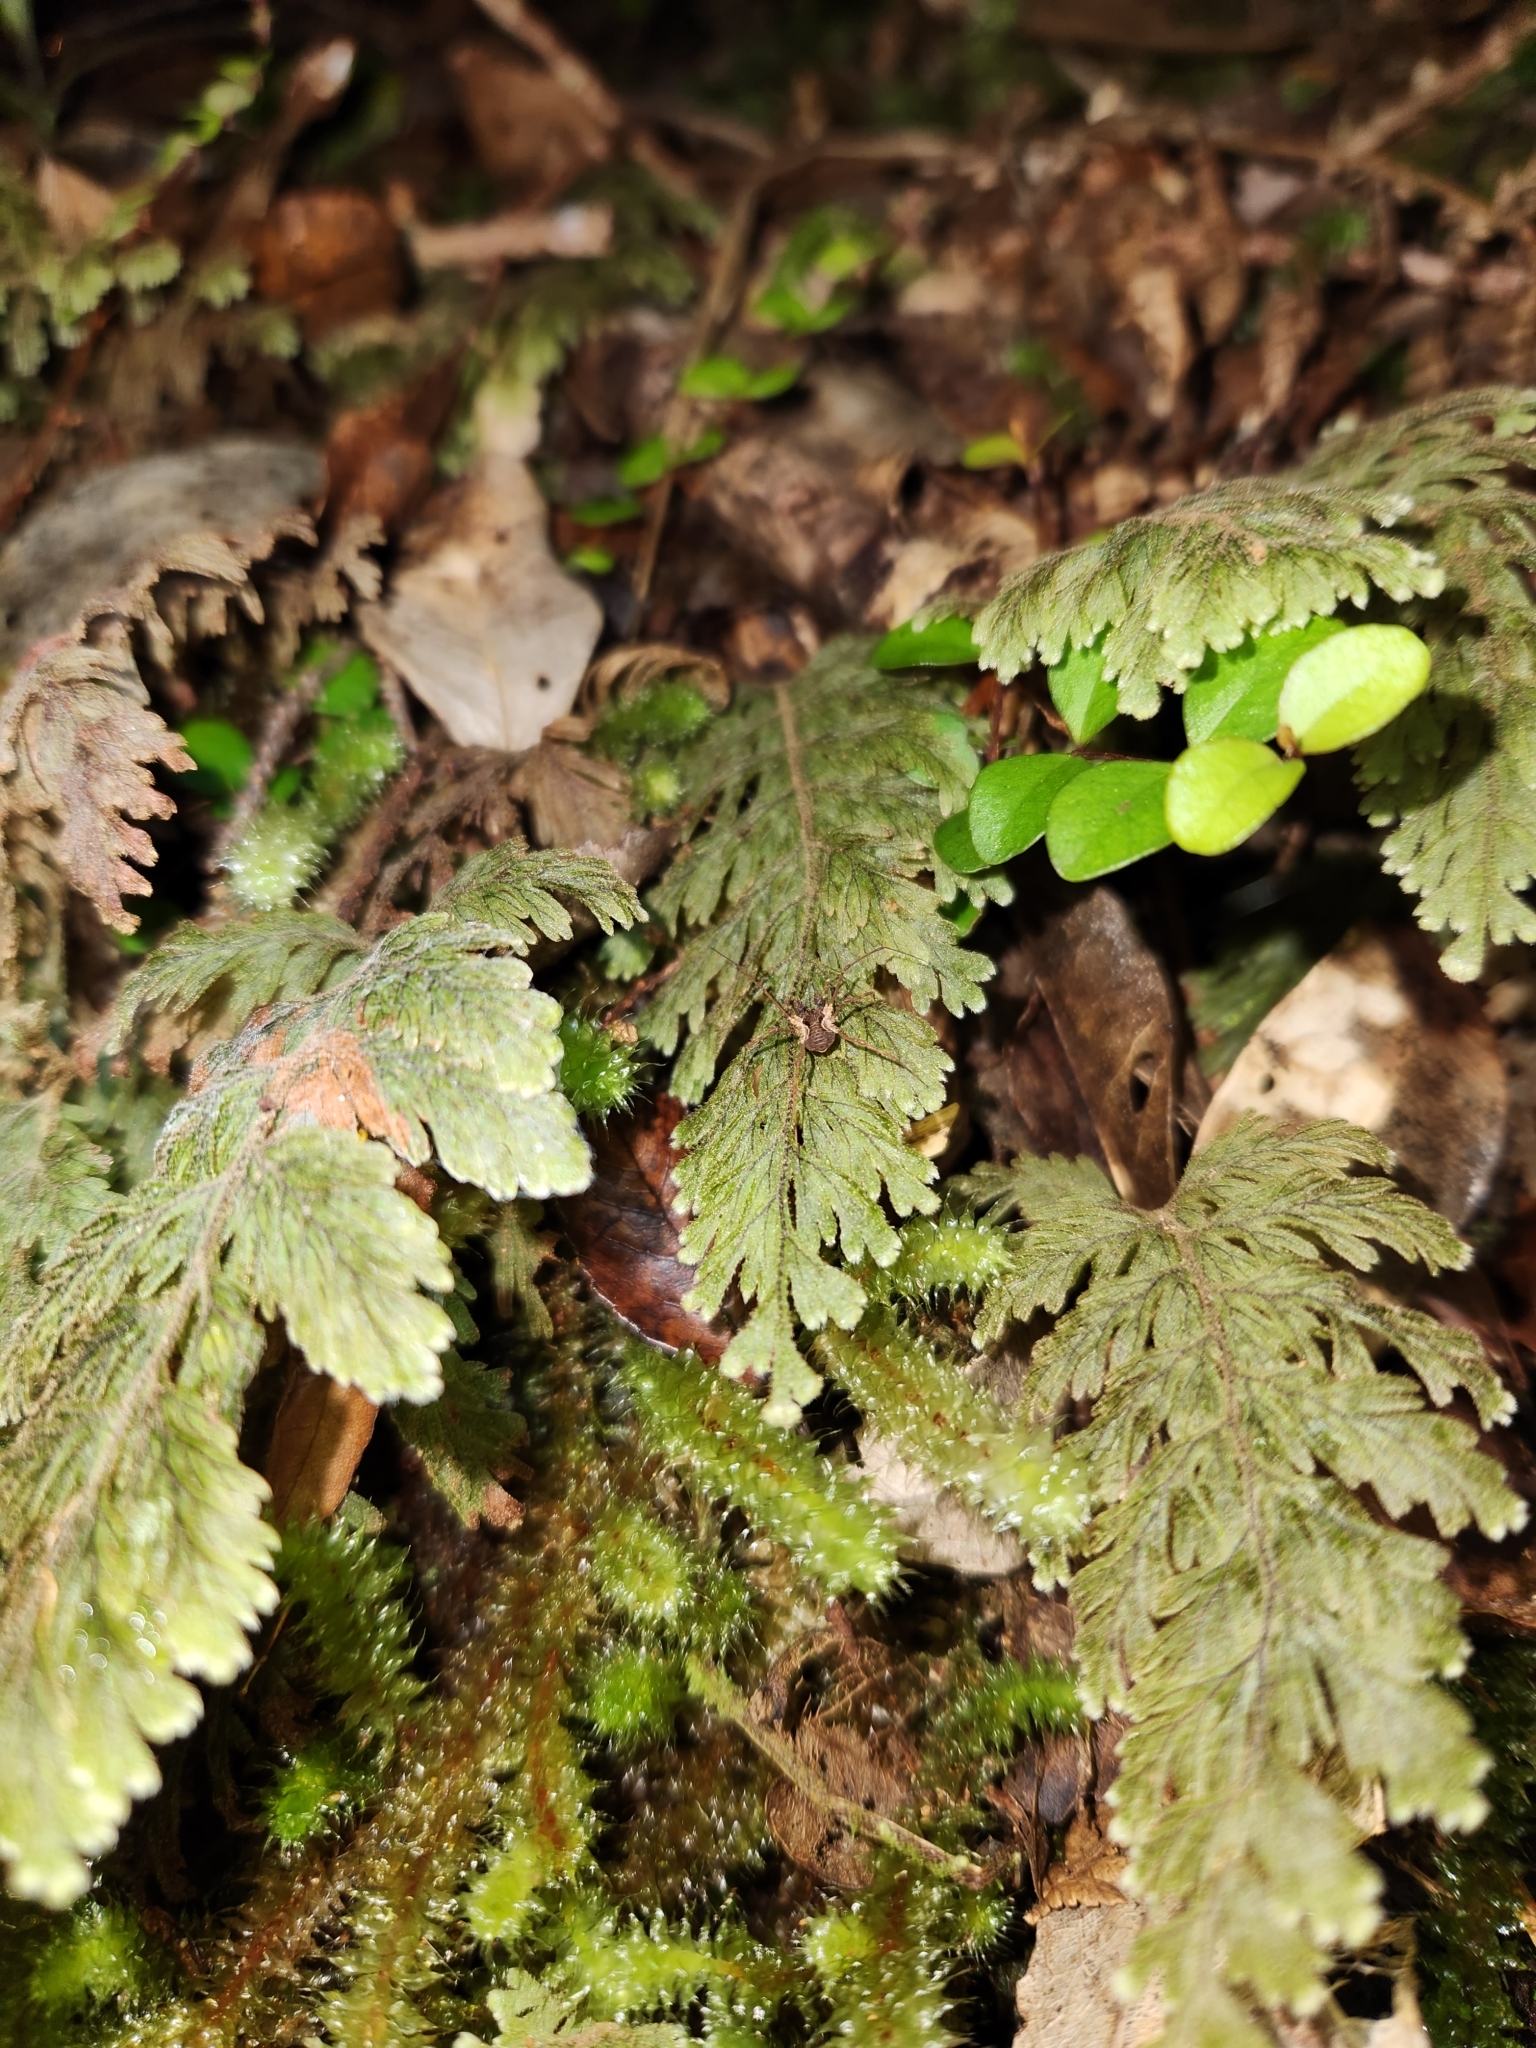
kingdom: Animalia
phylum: Arthropoda
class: Arachnida
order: Opiliones
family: Triaenonychidae
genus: Algidia
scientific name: Algidia chiltoni
